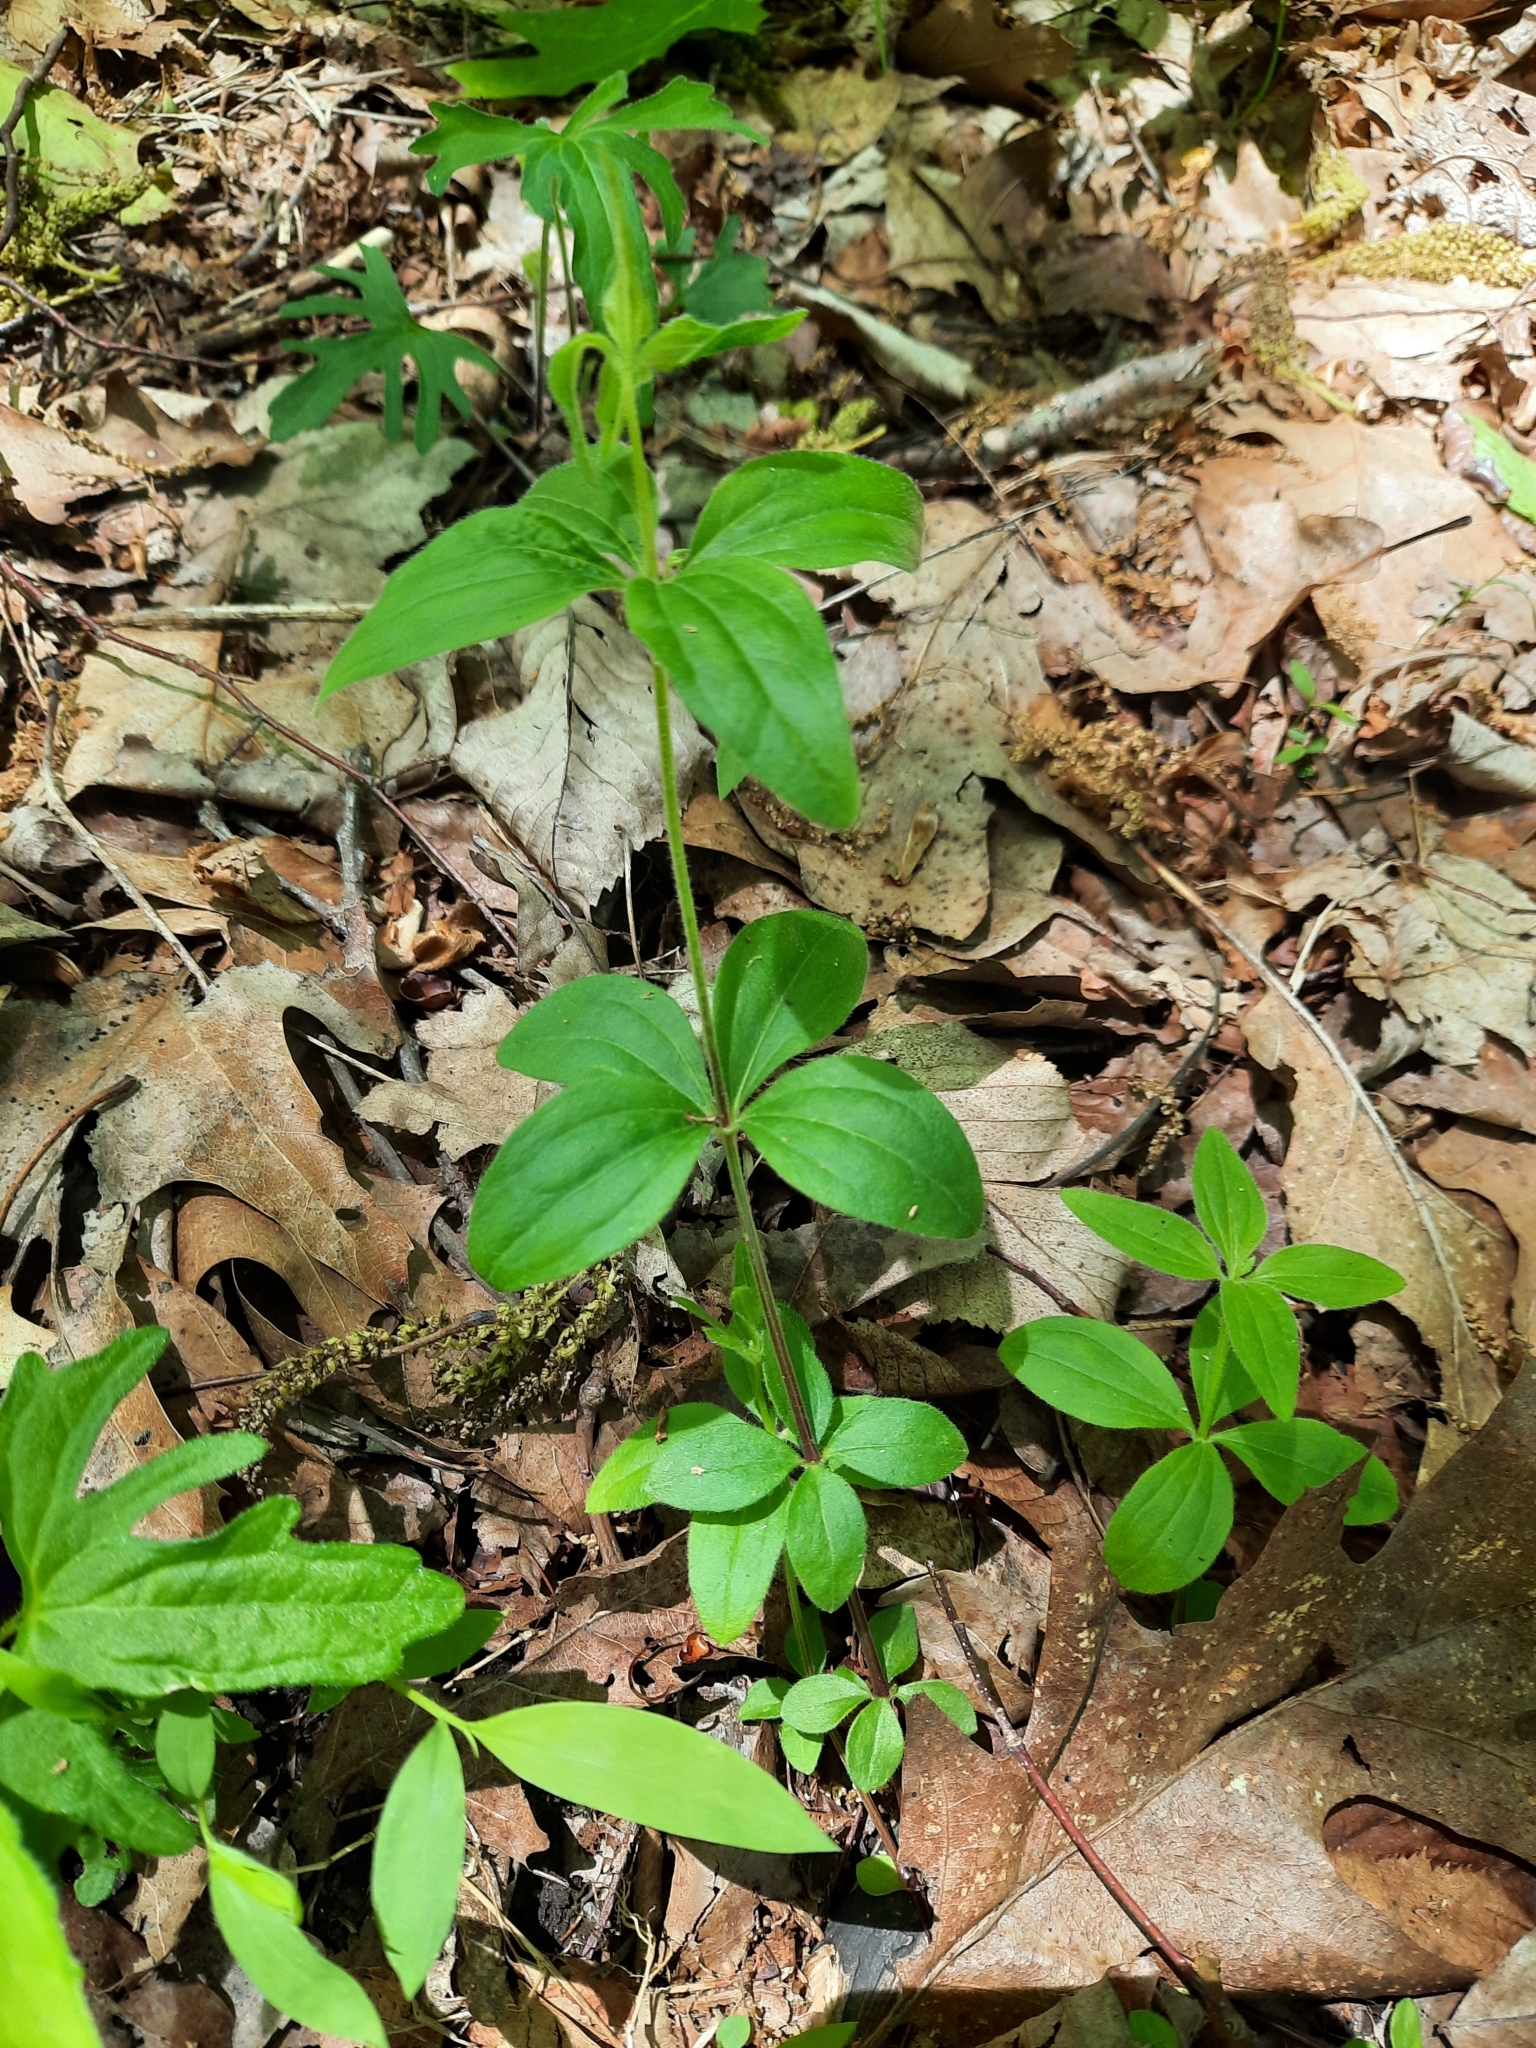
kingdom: Plantae
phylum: Tracheophyta
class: Magnoliopsida
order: Gentianales
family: Rubiaceae
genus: Galium
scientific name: Galium circaezans
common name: Forest bedstraw
